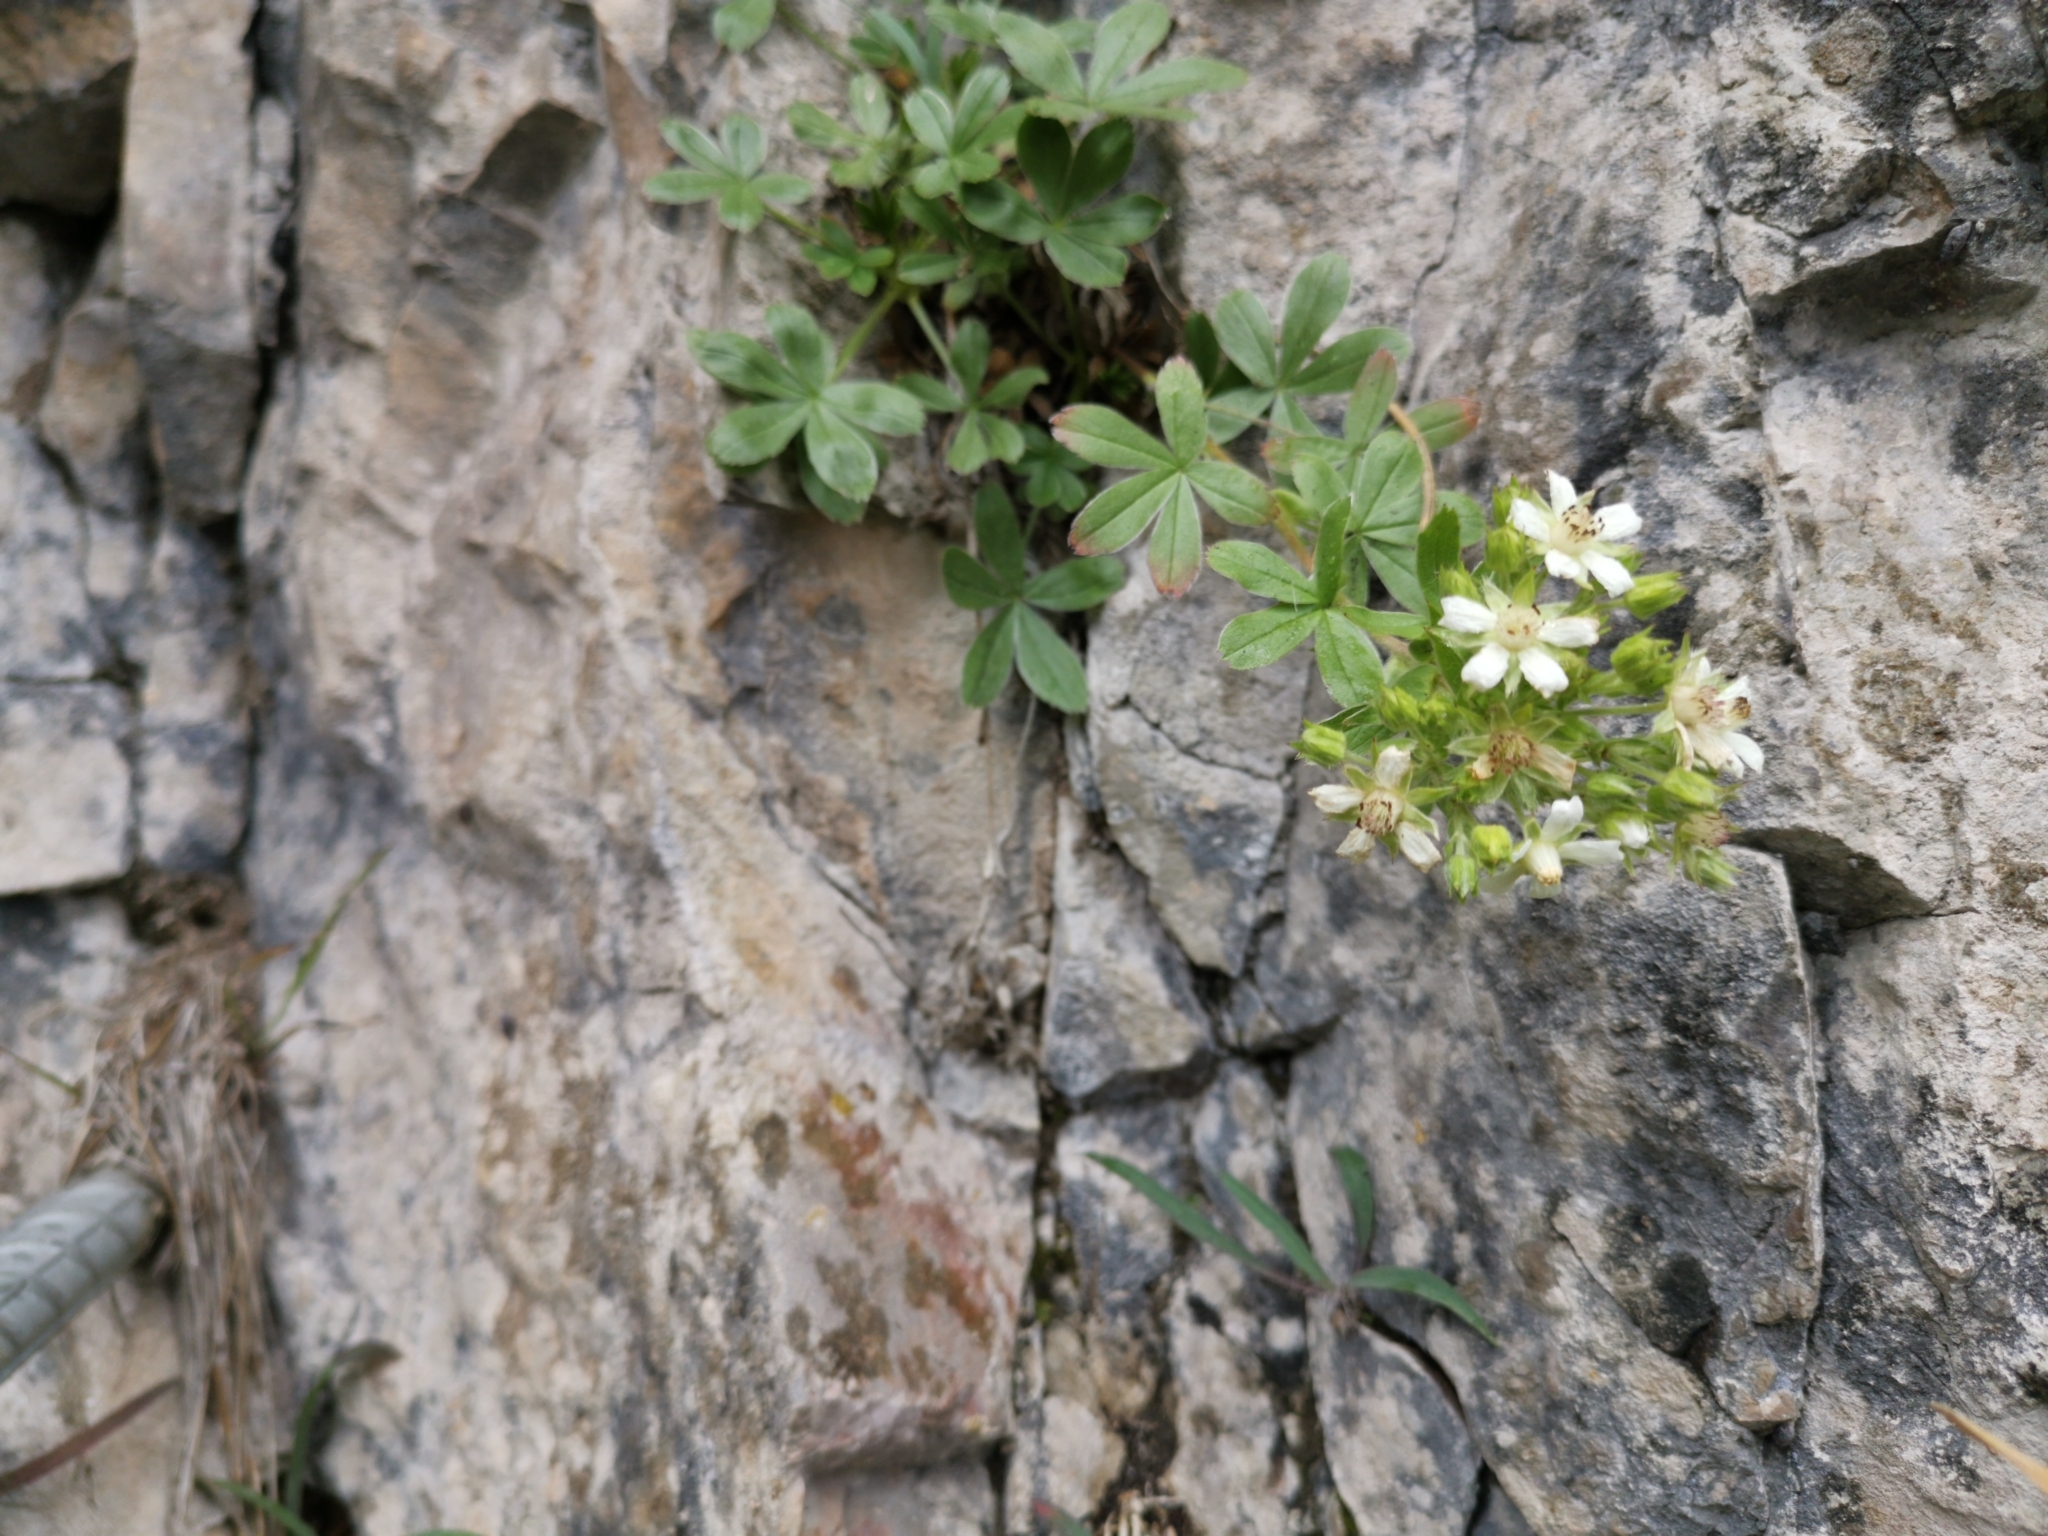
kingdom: Plantae
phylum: Tracheophyta
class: Magnoliopsida
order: Rosales
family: Rosaceae
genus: Potentilla
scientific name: Potentilla caulescens
